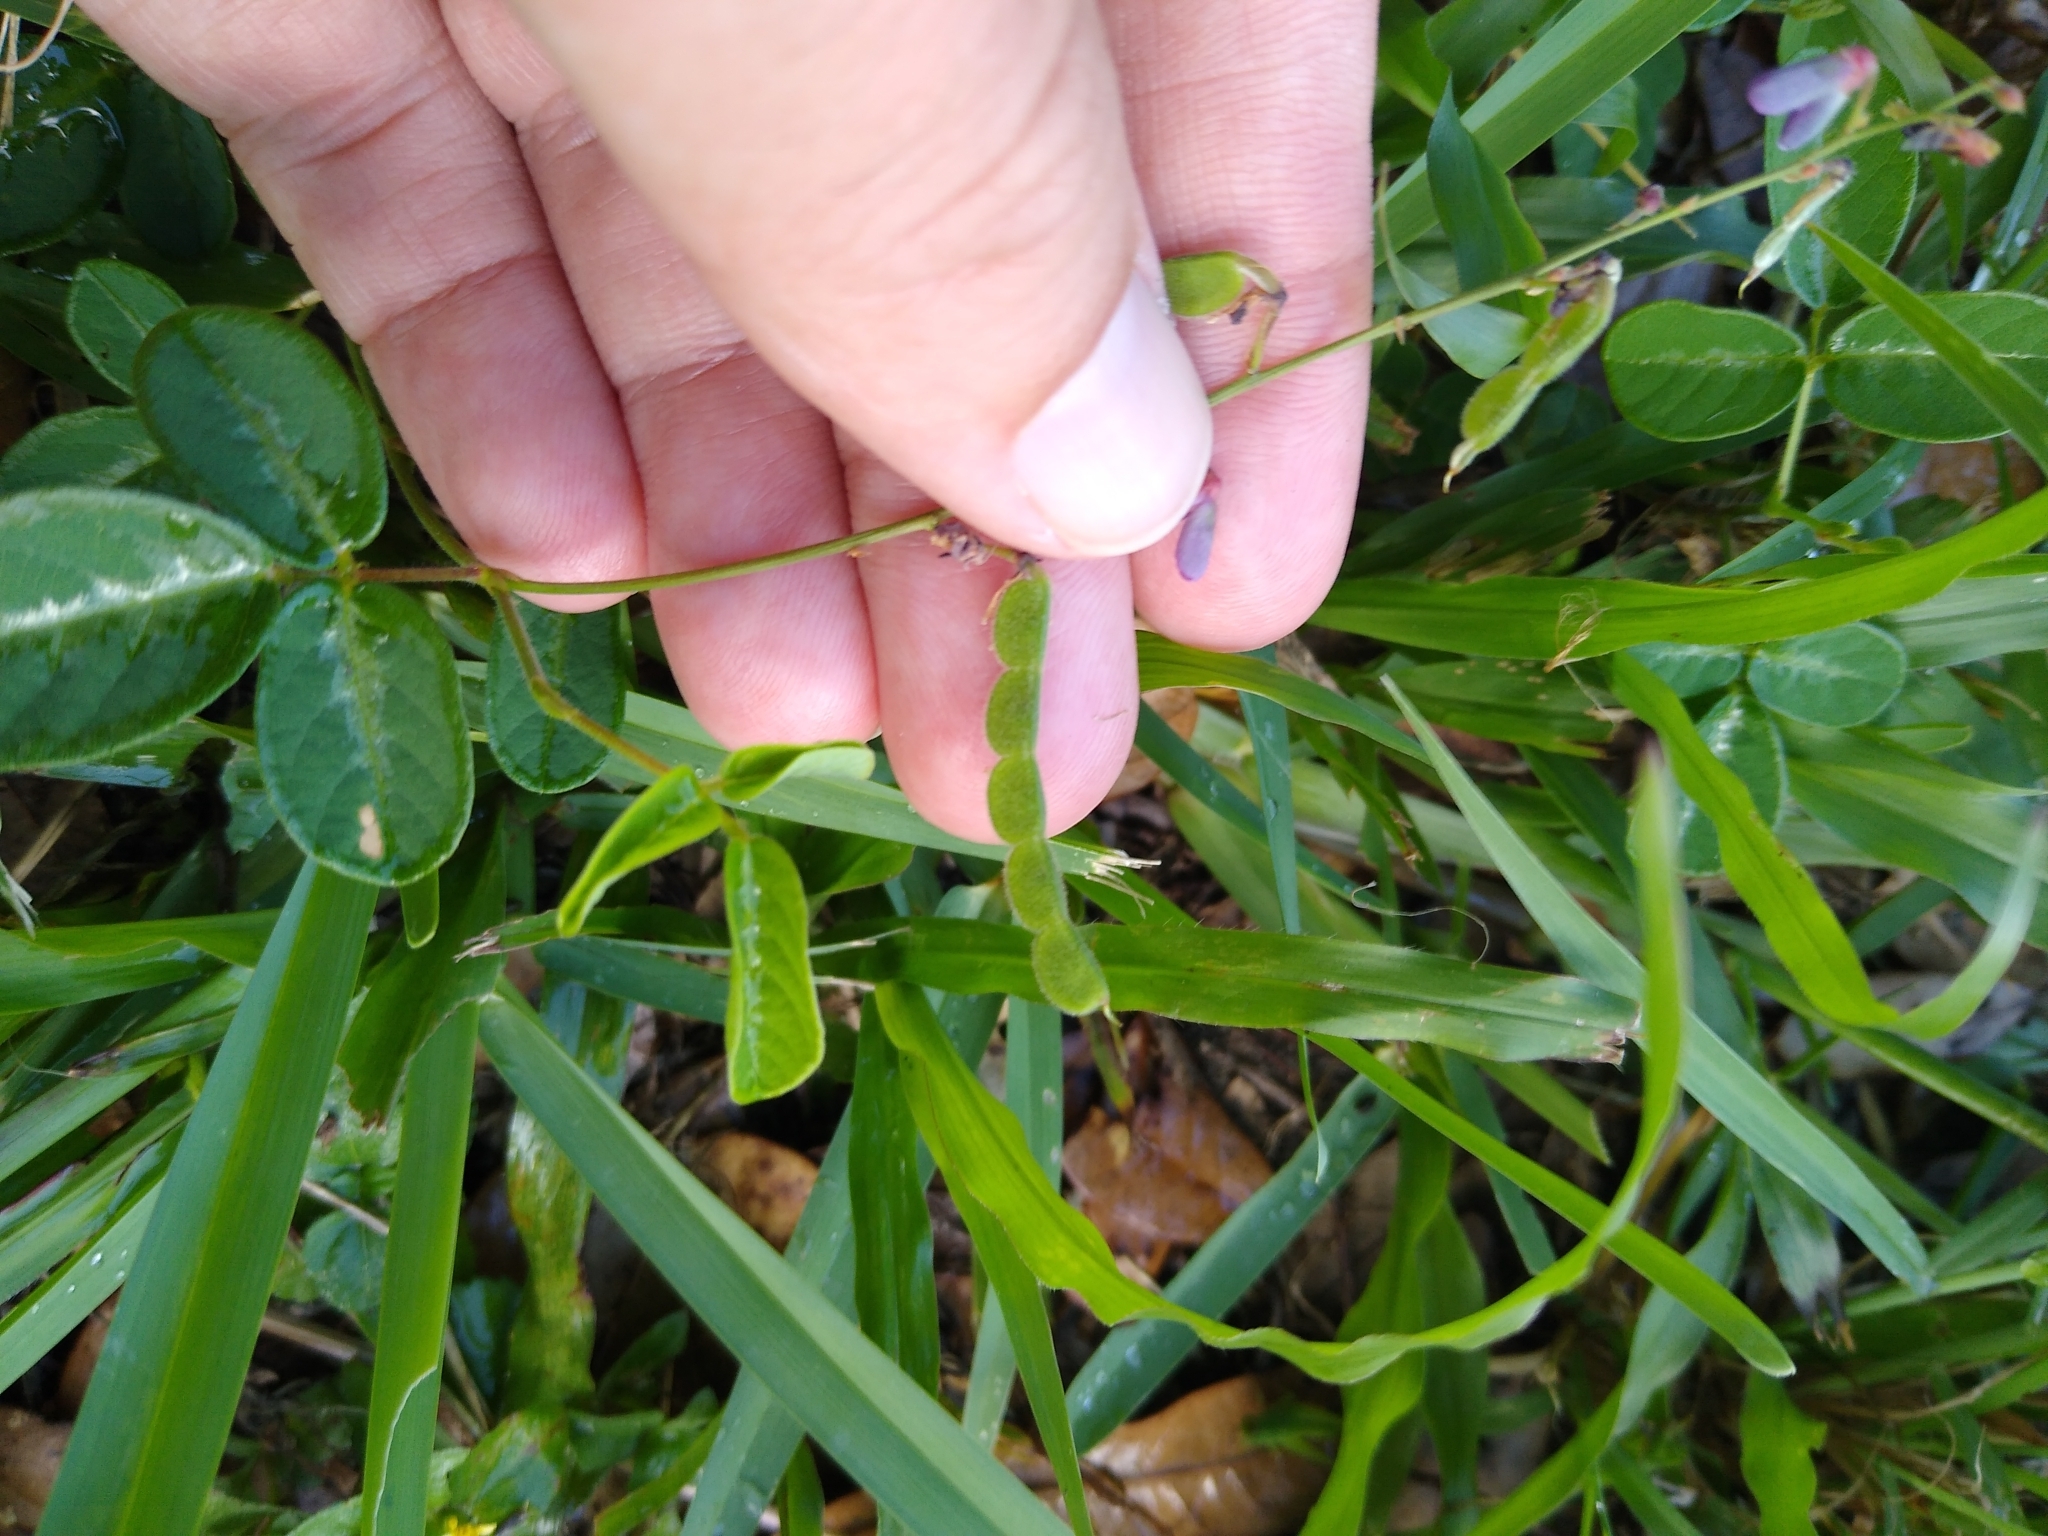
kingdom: Plantae
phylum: Tracheophyta
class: Magnoliopsida
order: Fabales
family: Fabaceae
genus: Desmodium
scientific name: Desmodium incanum
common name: Tickclover
